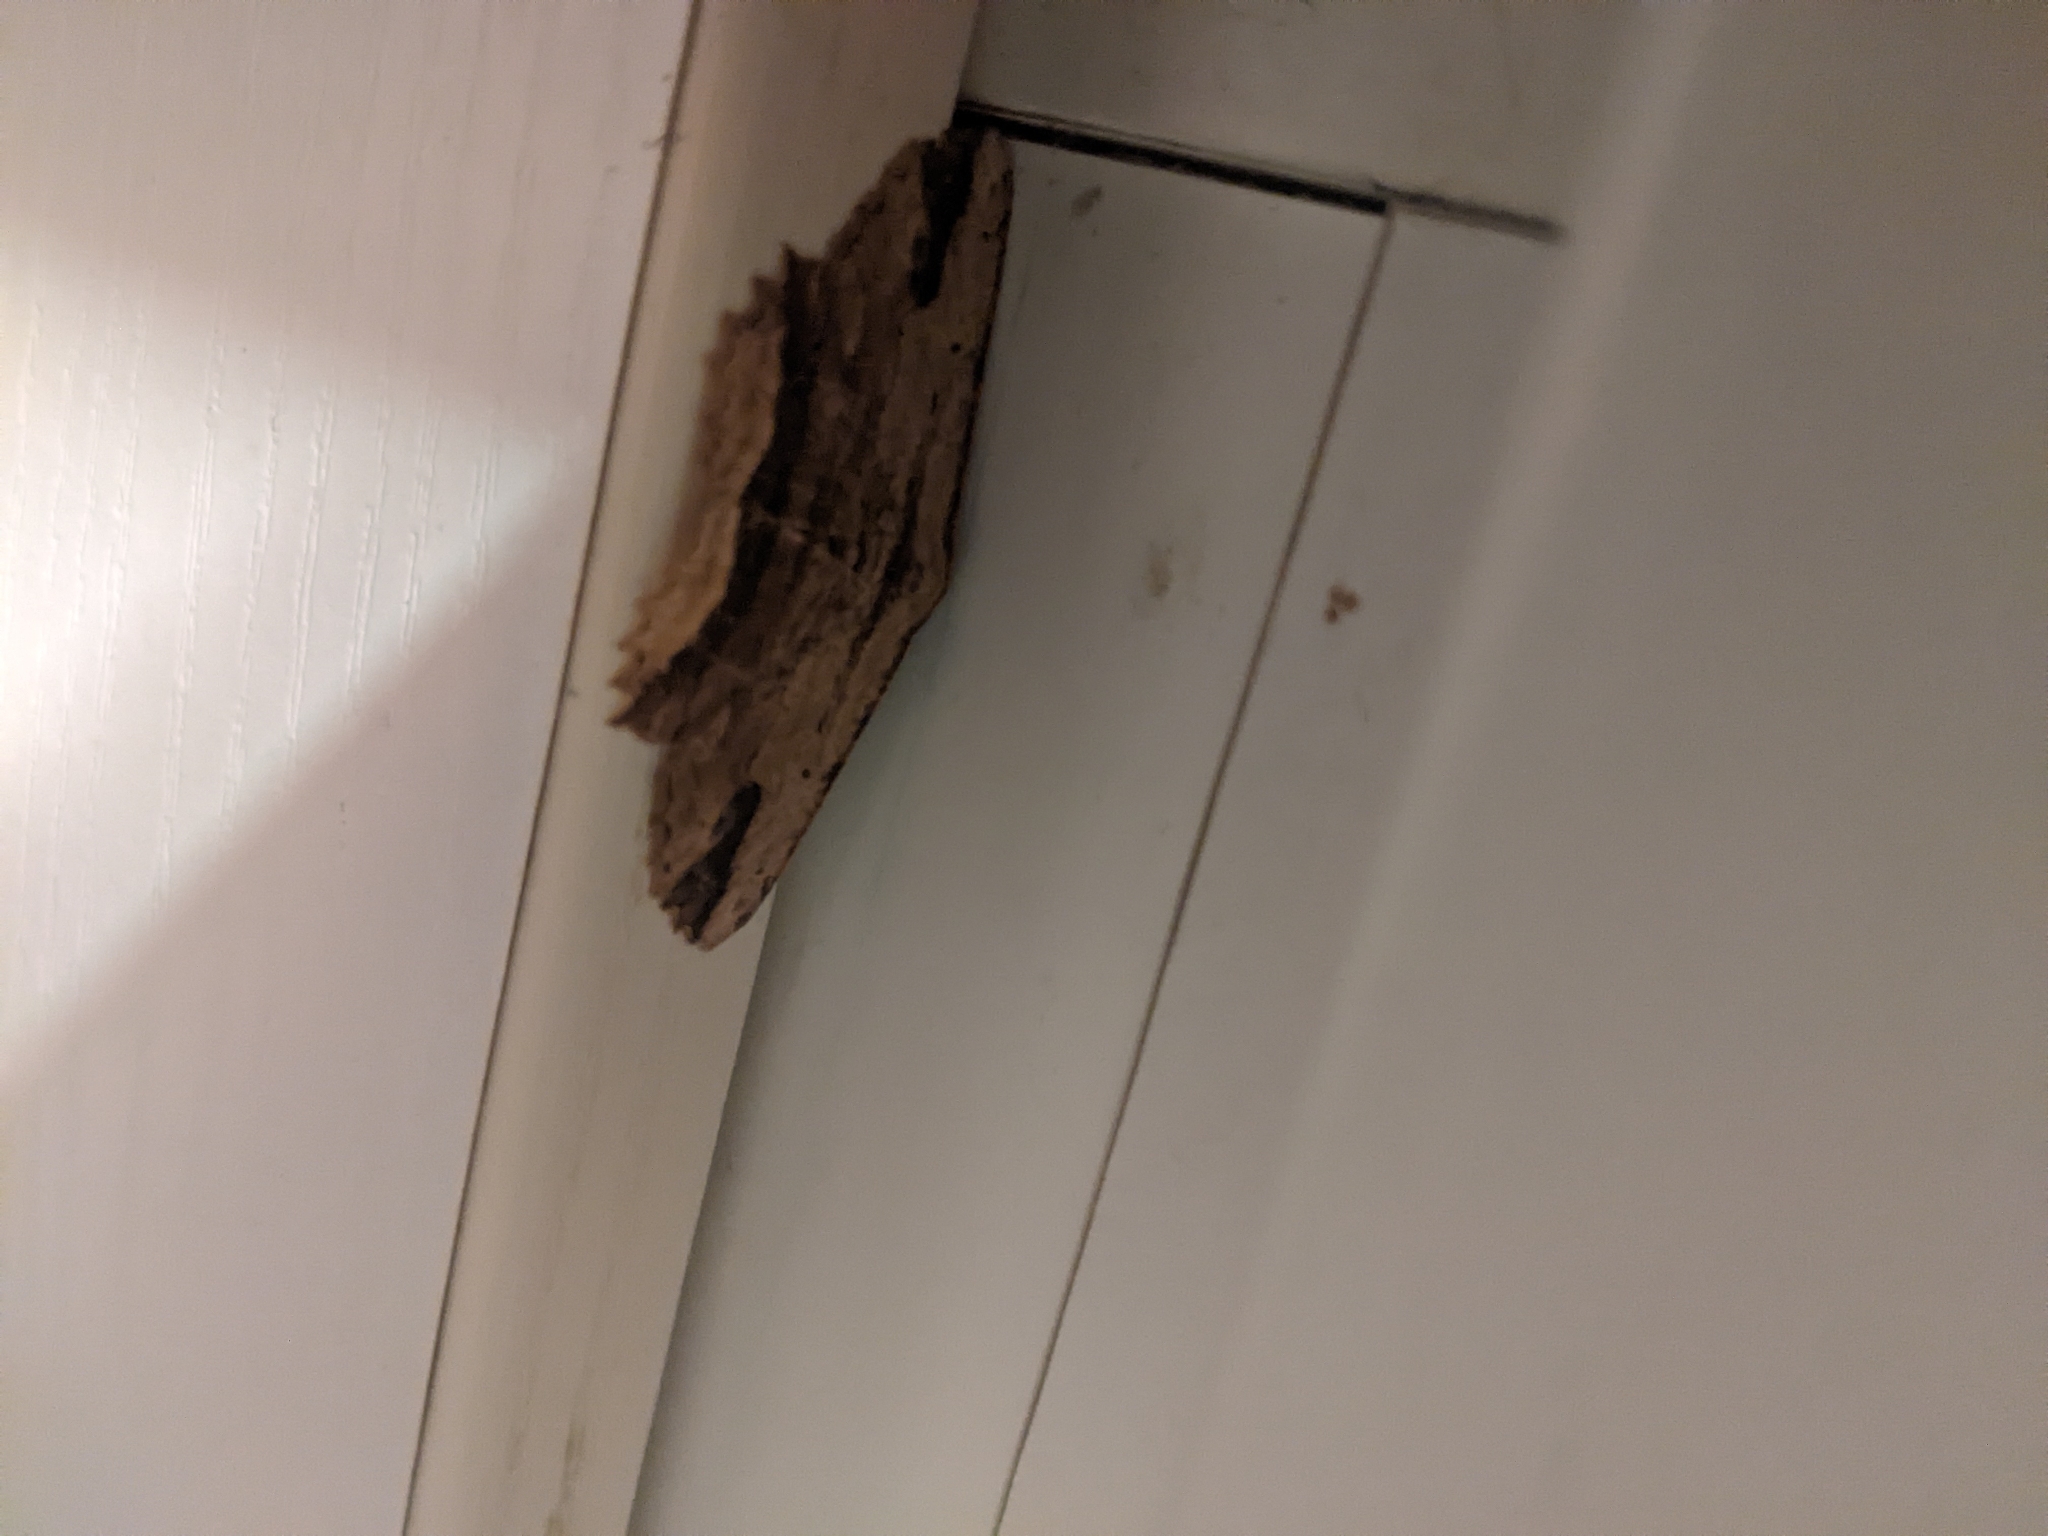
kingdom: Animalia
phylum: Arthropoda
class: Insecta
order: Lepidoptera
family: Geometridae
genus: Menophra
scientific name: Menophra abruptaria
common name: Waved umber
